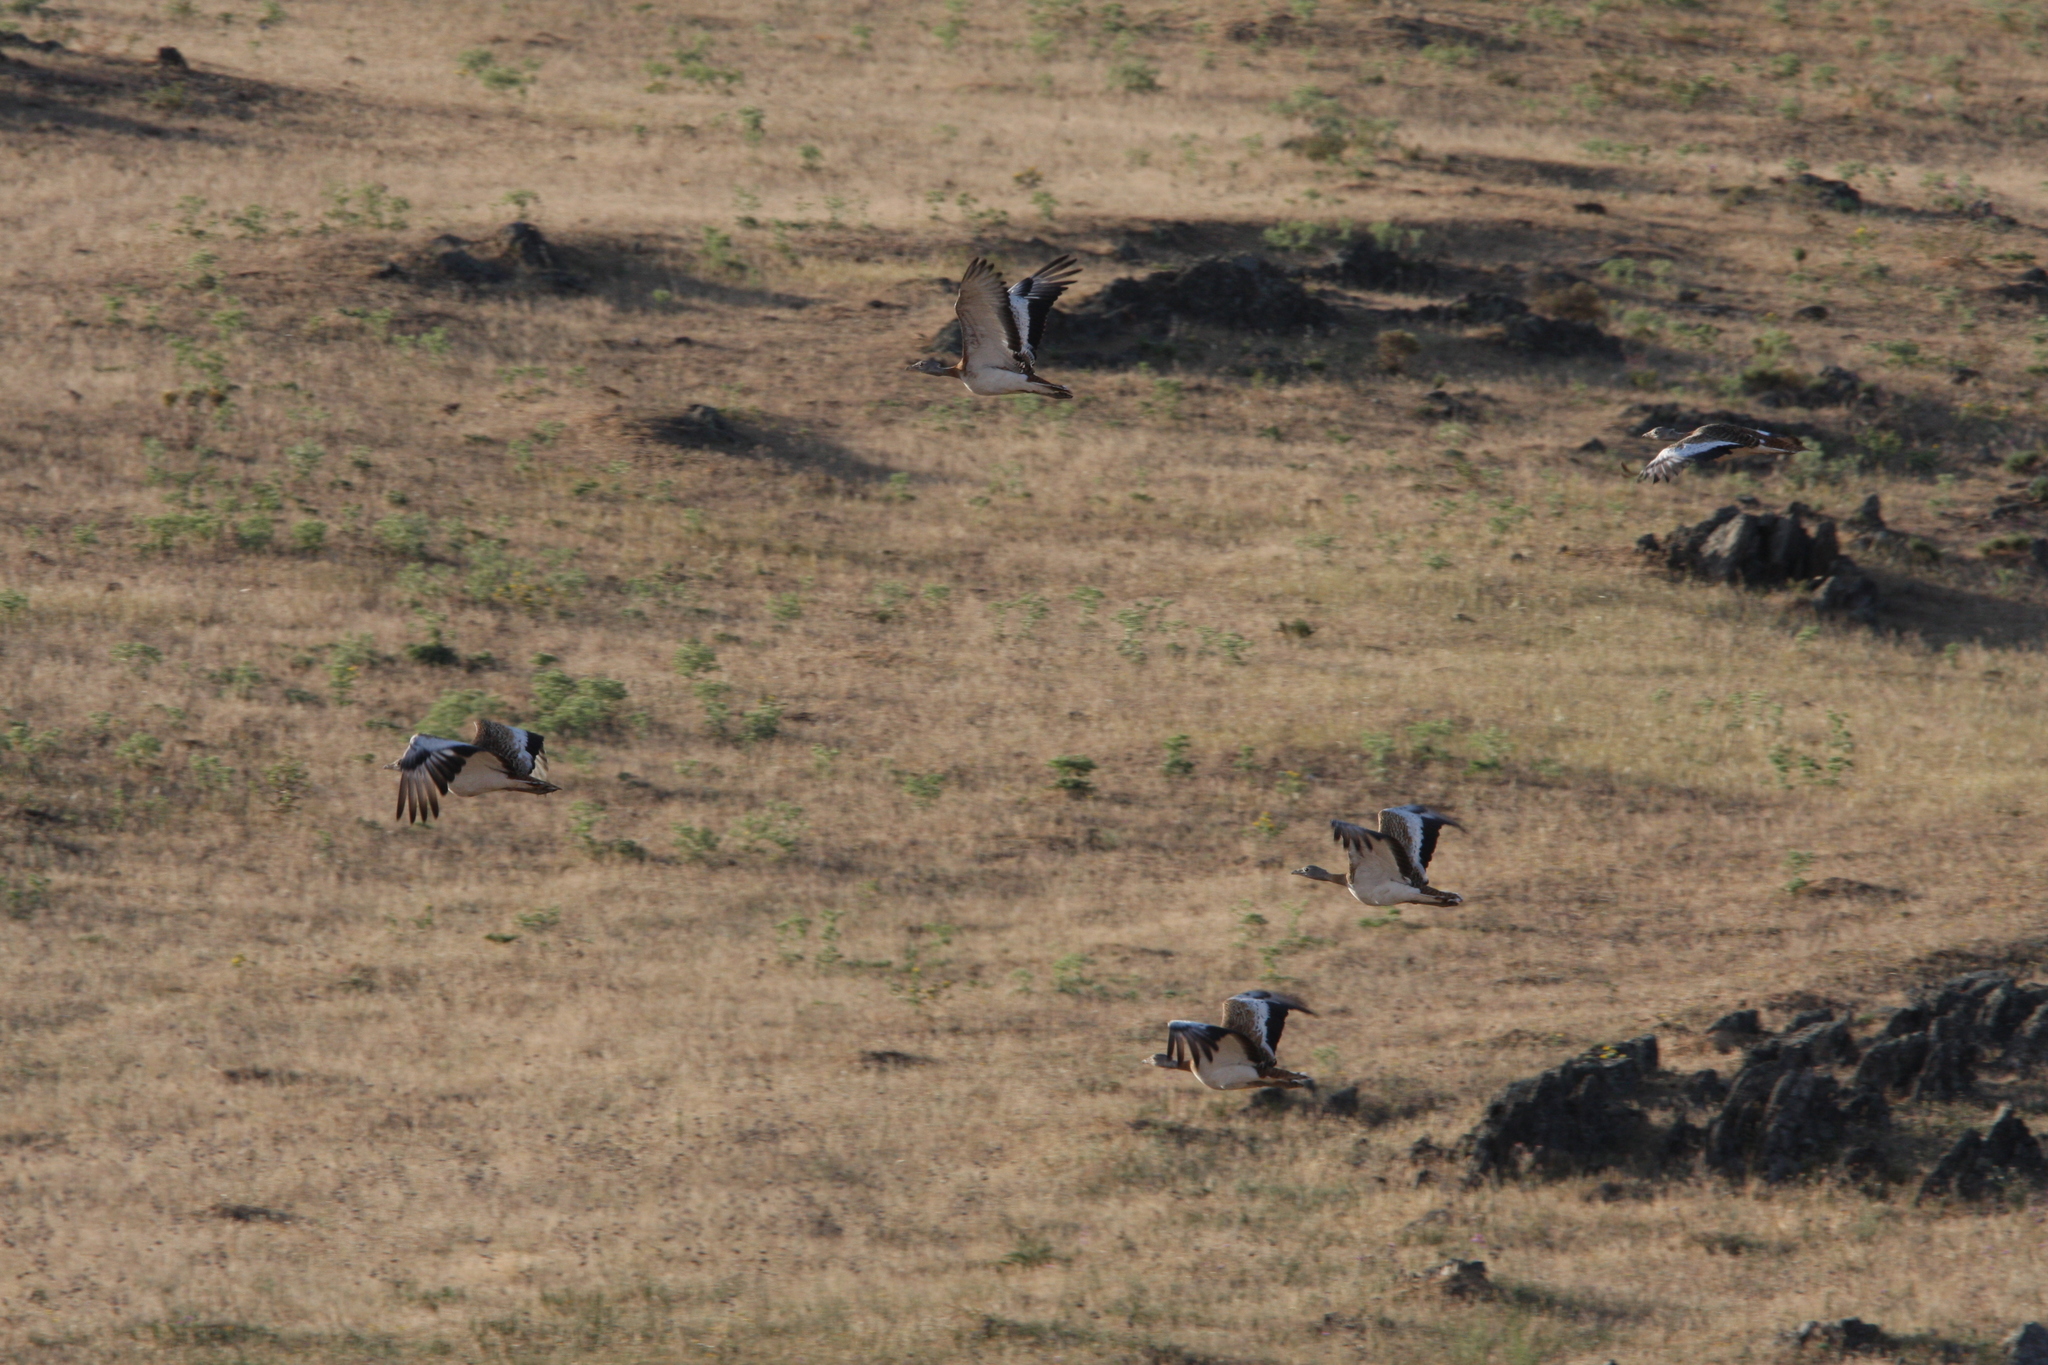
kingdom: Animalia
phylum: Chordata
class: Aves
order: Otidiformes
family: Otididae
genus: Otis
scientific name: Otis tarda
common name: Great bustard
